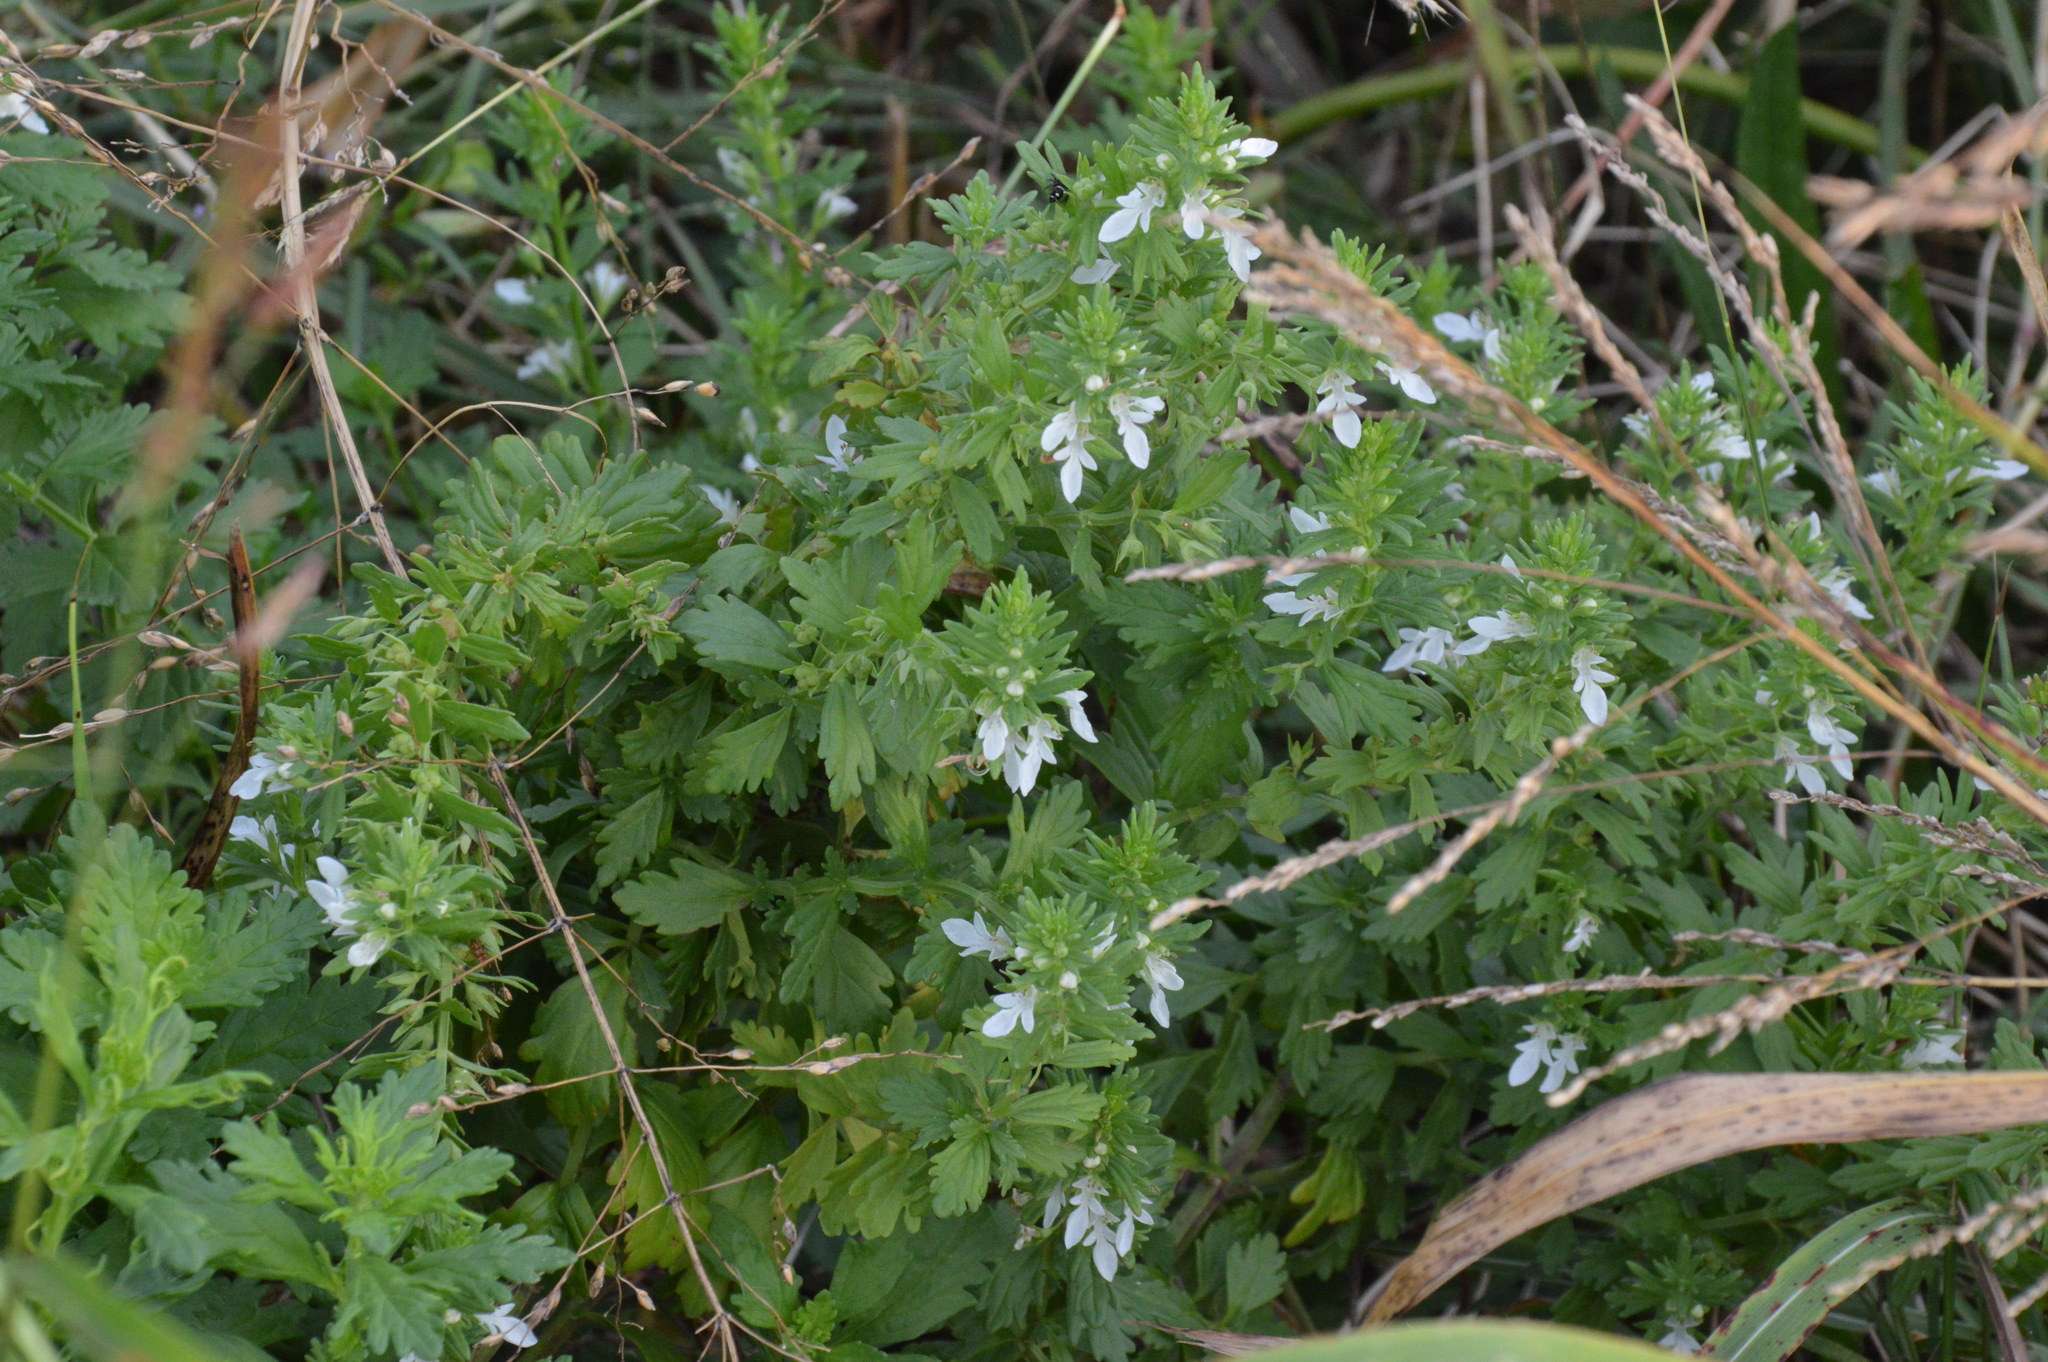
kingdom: Plantae
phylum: Tracheophyta
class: Magnoliopsida
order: Lamiales
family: Lamiaceae
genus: Teucrium
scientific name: Teucrium cubense
